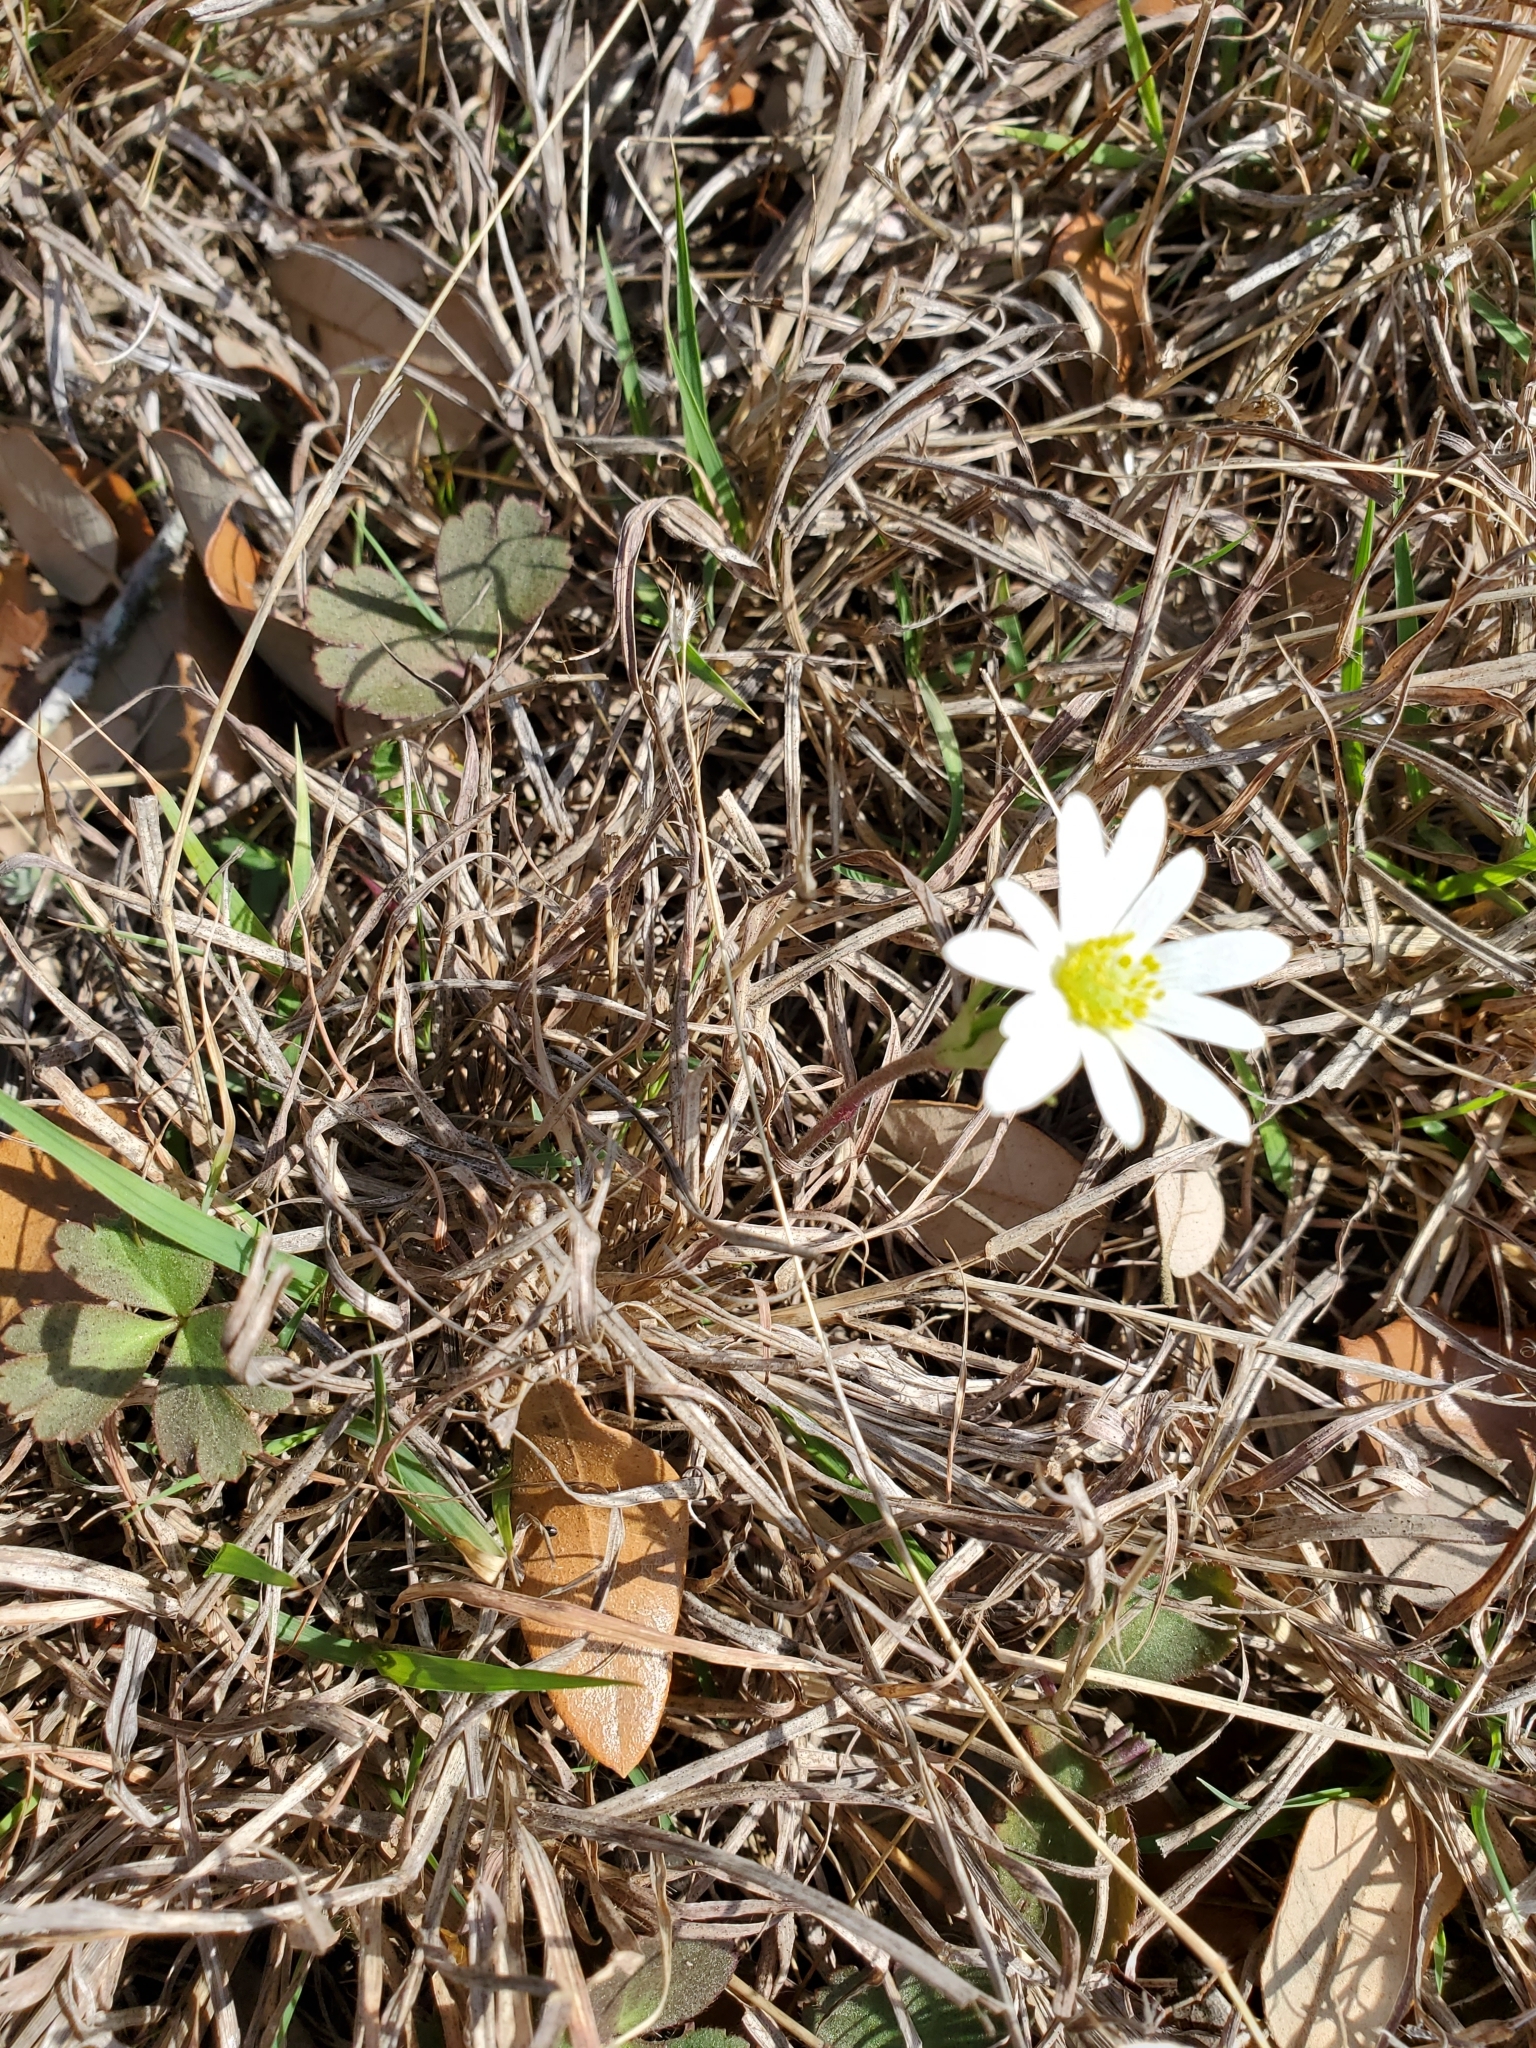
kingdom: Plantae
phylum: Tracheophyta
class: Magnoliopsida
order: Ranunculales
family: Ranunculaceae
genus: Anemone
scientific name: Anemone berlandieri
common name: Ten-petal anemone
